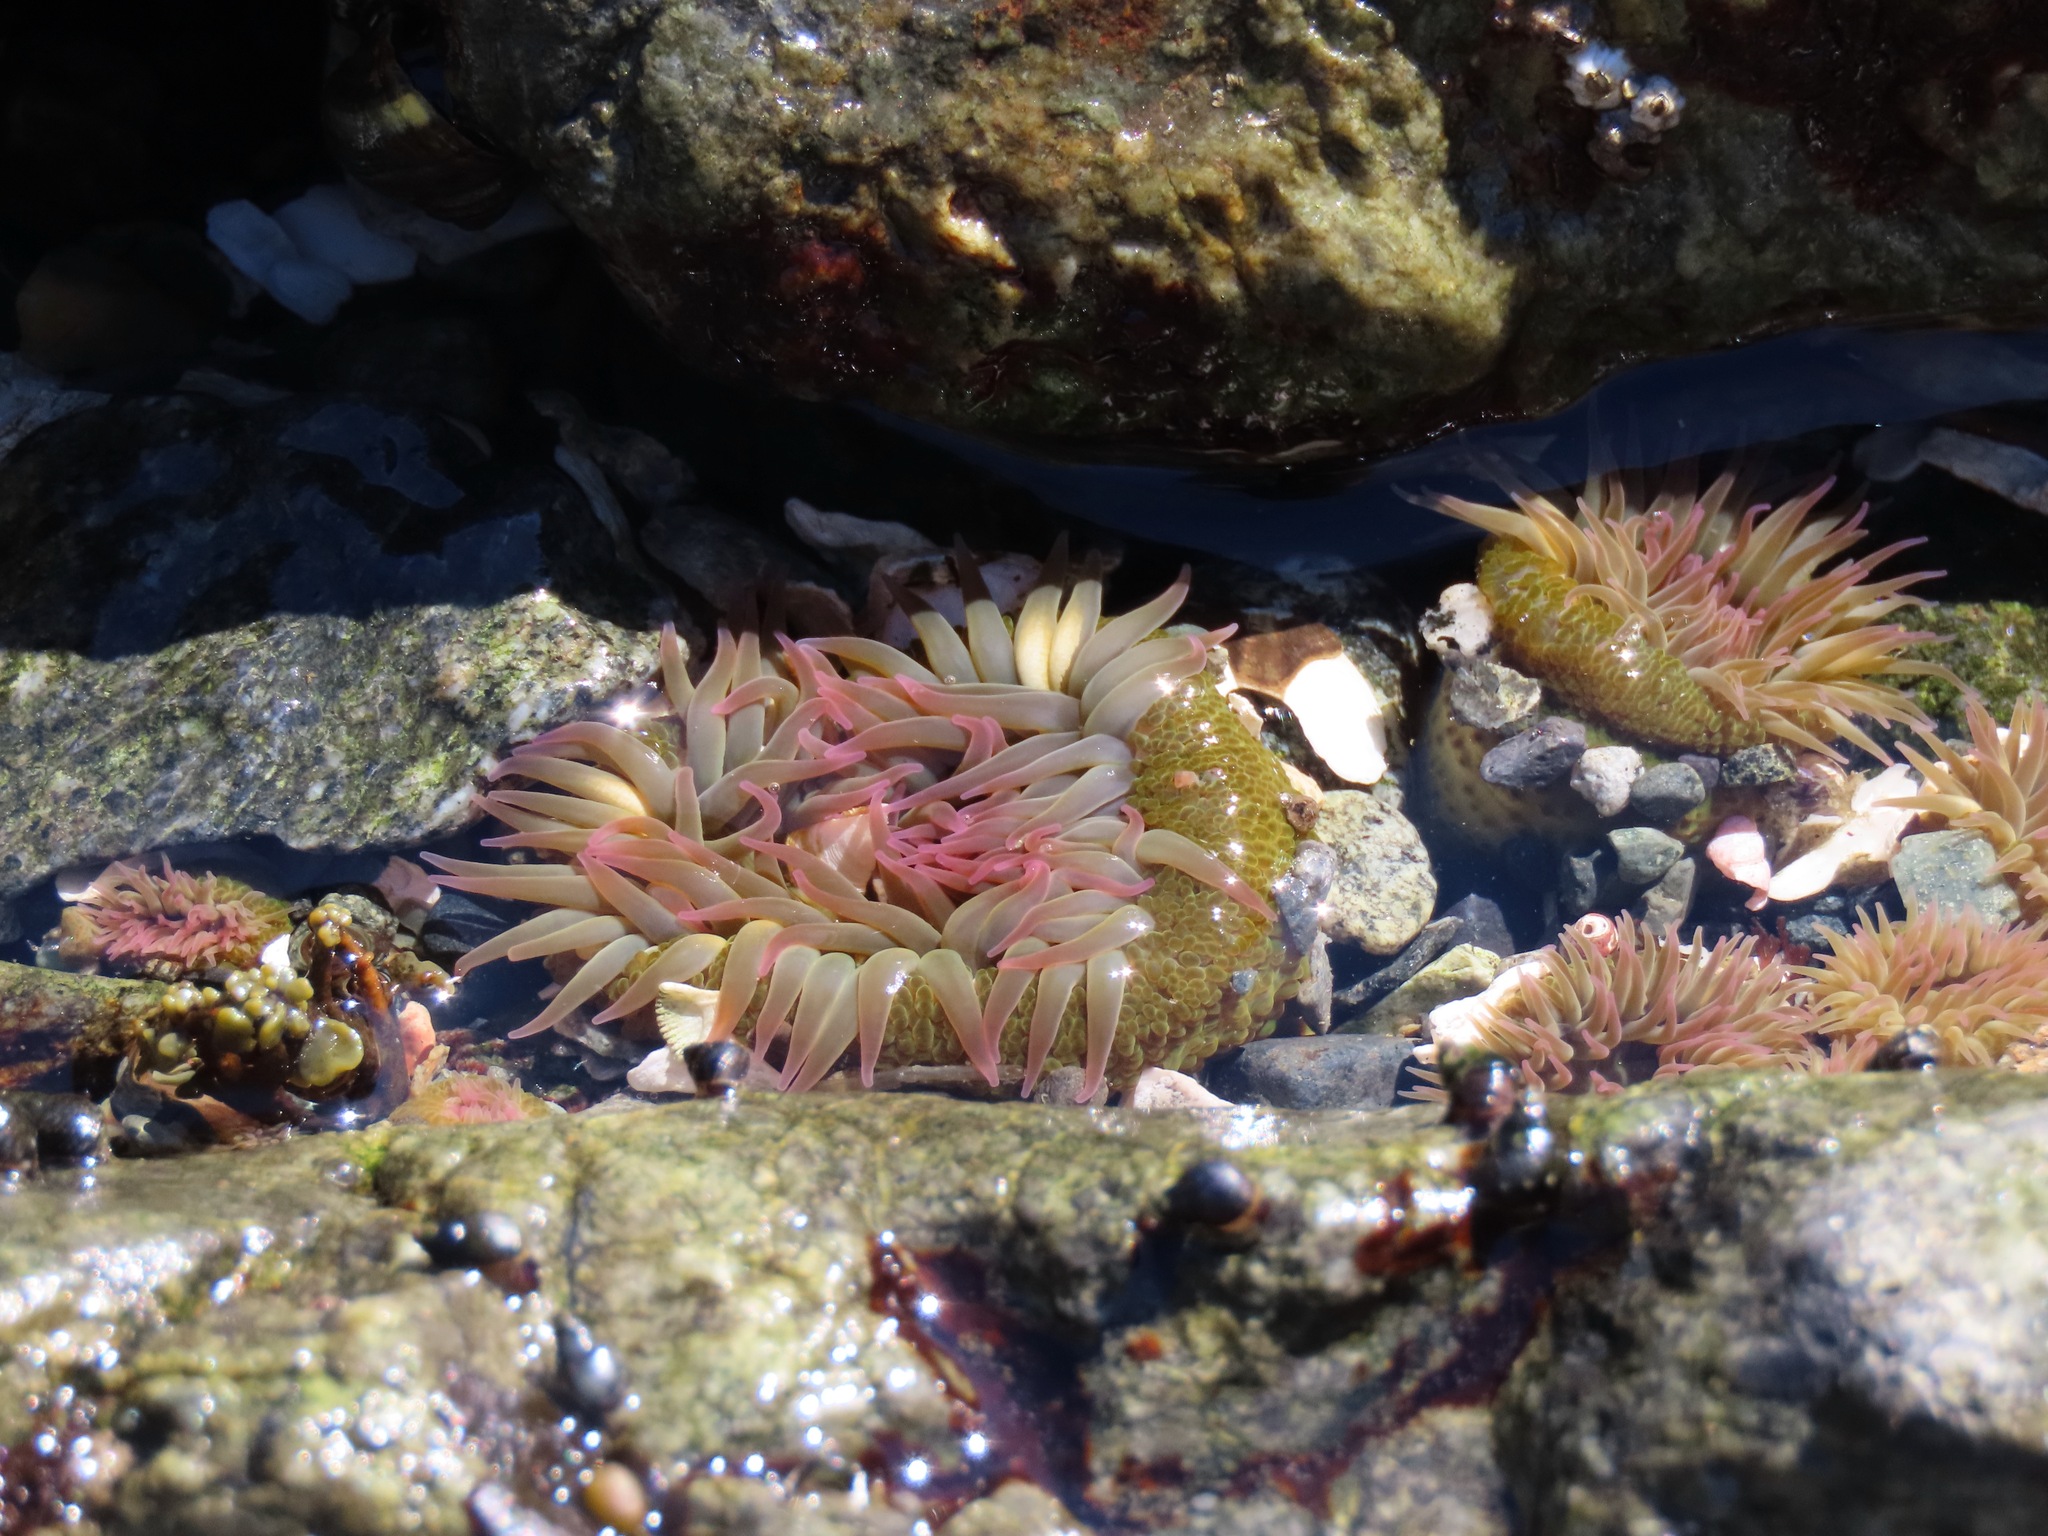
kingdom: Animalia
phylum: Cnidaria
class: Anthozoa
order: Actiniaria
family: Actiniidae
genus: Anthopleura
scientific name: Anthopleura elegantissima
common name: Clonal anemone
